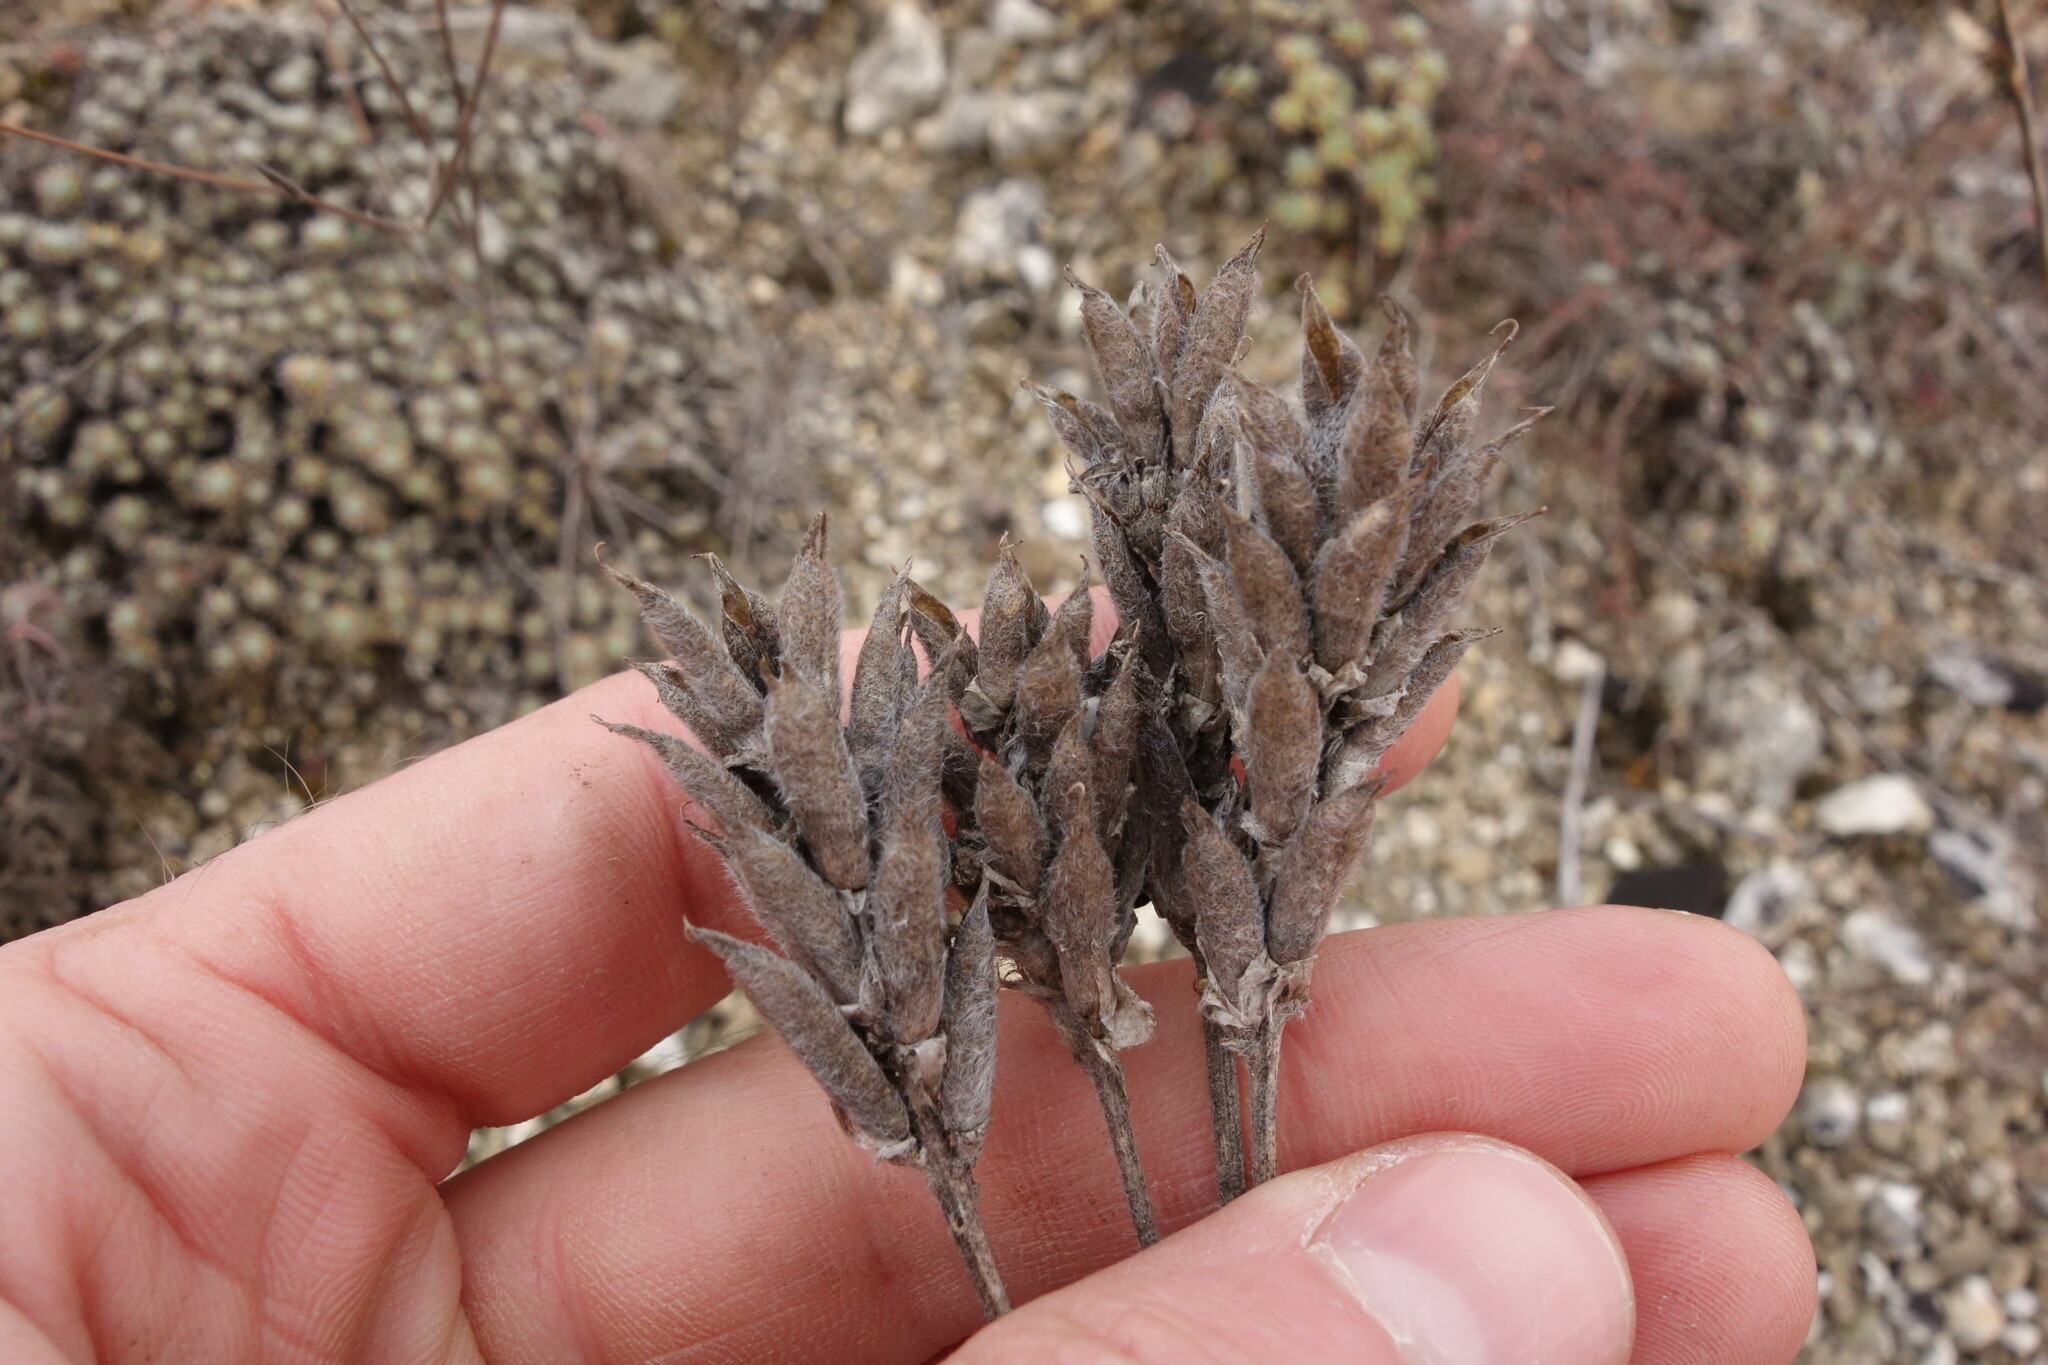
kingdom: Plantae
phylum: Tracheophyta
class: Magnoliopsida
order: Fabales
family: Fabaceae
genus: Oxytropis
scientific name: Oxytropis pilosa
